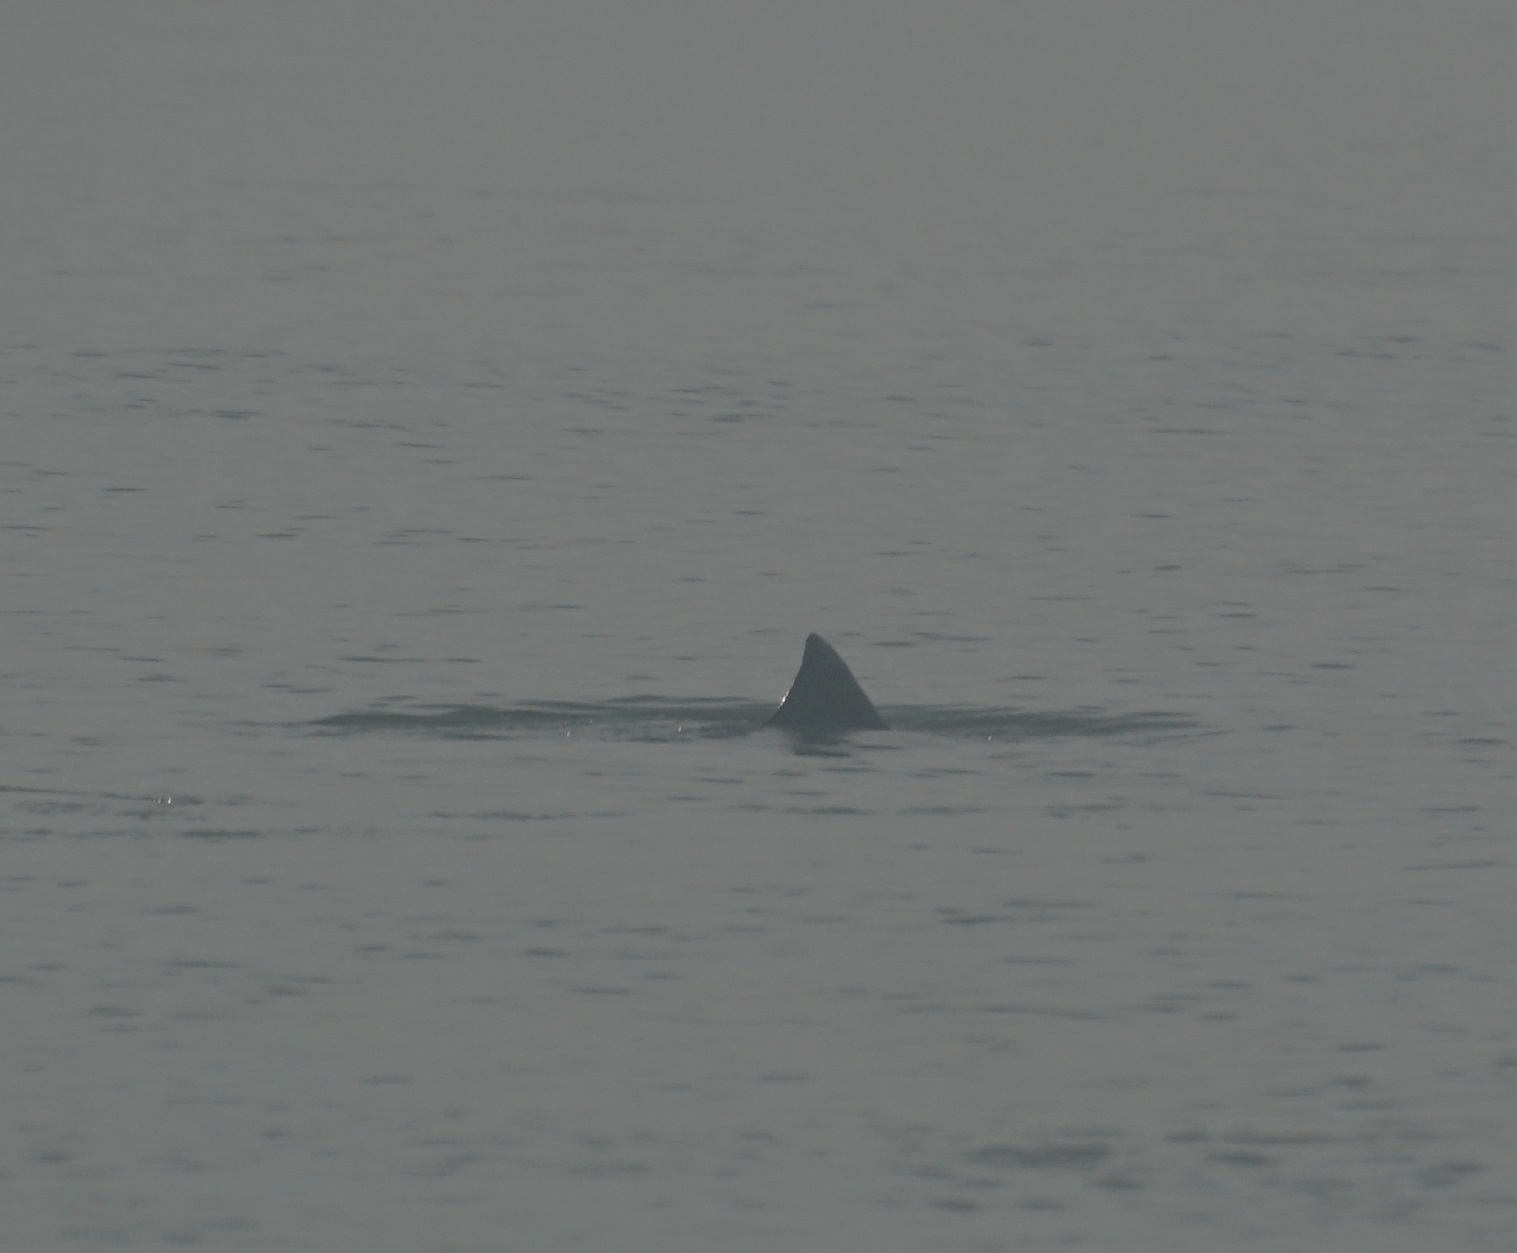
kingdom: Animalia
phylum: Chordata
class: Mammalia
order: Cetacea
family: Delphinidae
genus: Sousa
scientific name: Sousa sahulensis
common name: Australian humpback dolphin
